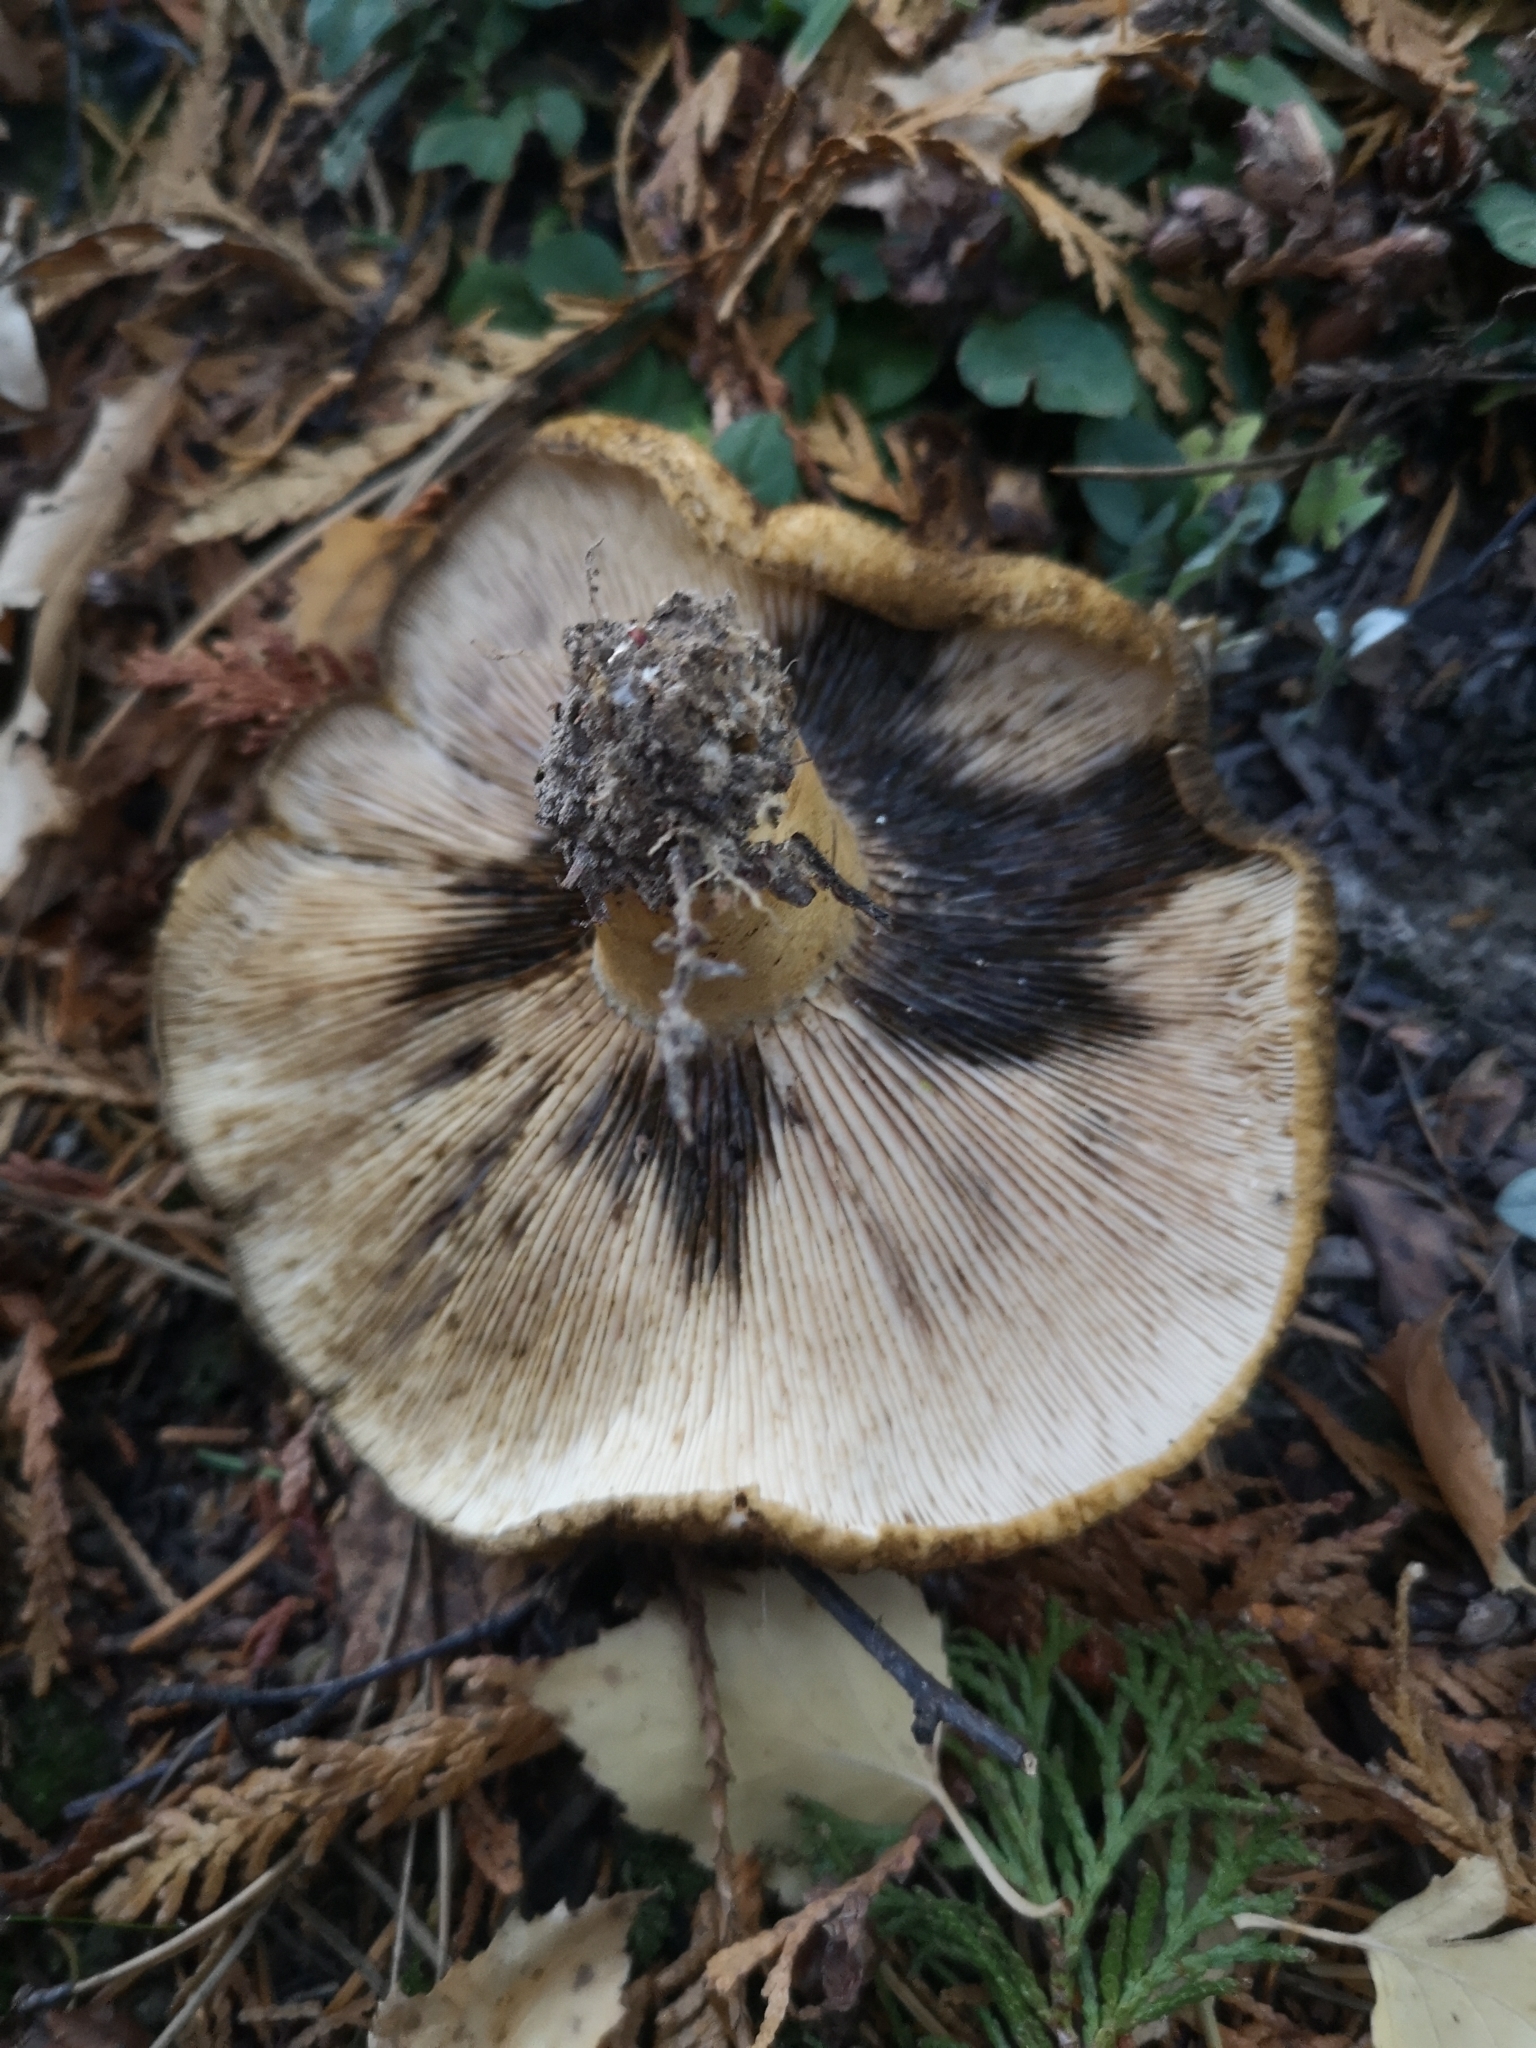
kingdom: Fungi
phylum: Basidiomycota
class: Agaricomycetes
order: Russulales
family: Russulaceae
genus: Lactarius
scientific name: Lactarius turpis
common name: Ugly milk-cap
